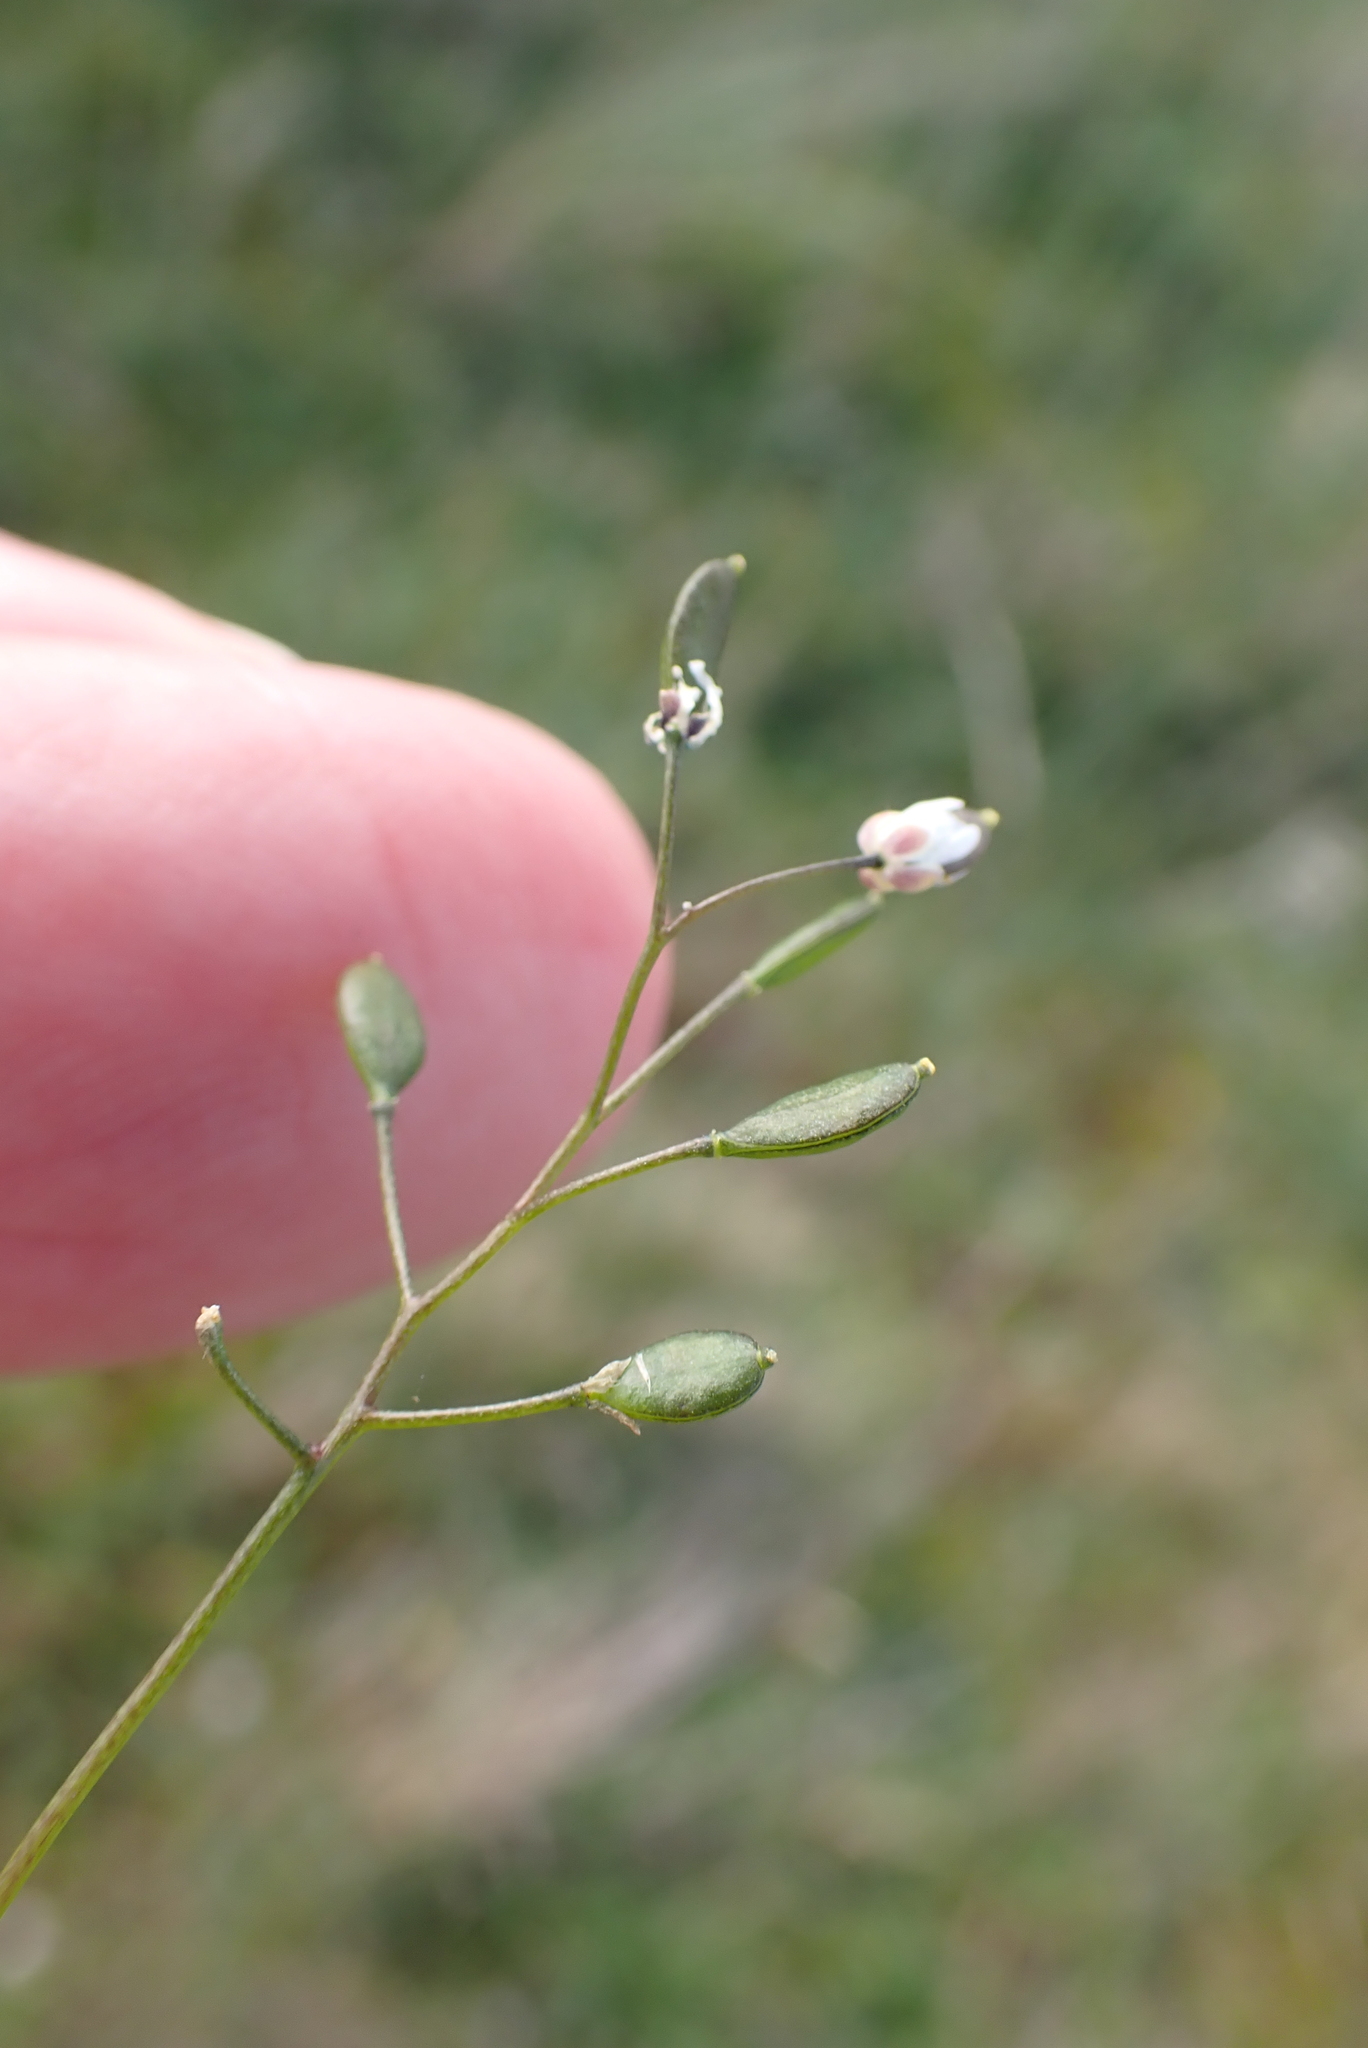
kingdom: Plantae
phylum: Tracheophyta
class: Magnoliopsida
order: Brassicales
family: Brassicaceae
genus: Draba
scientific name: Draba verna
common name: Spring draba
